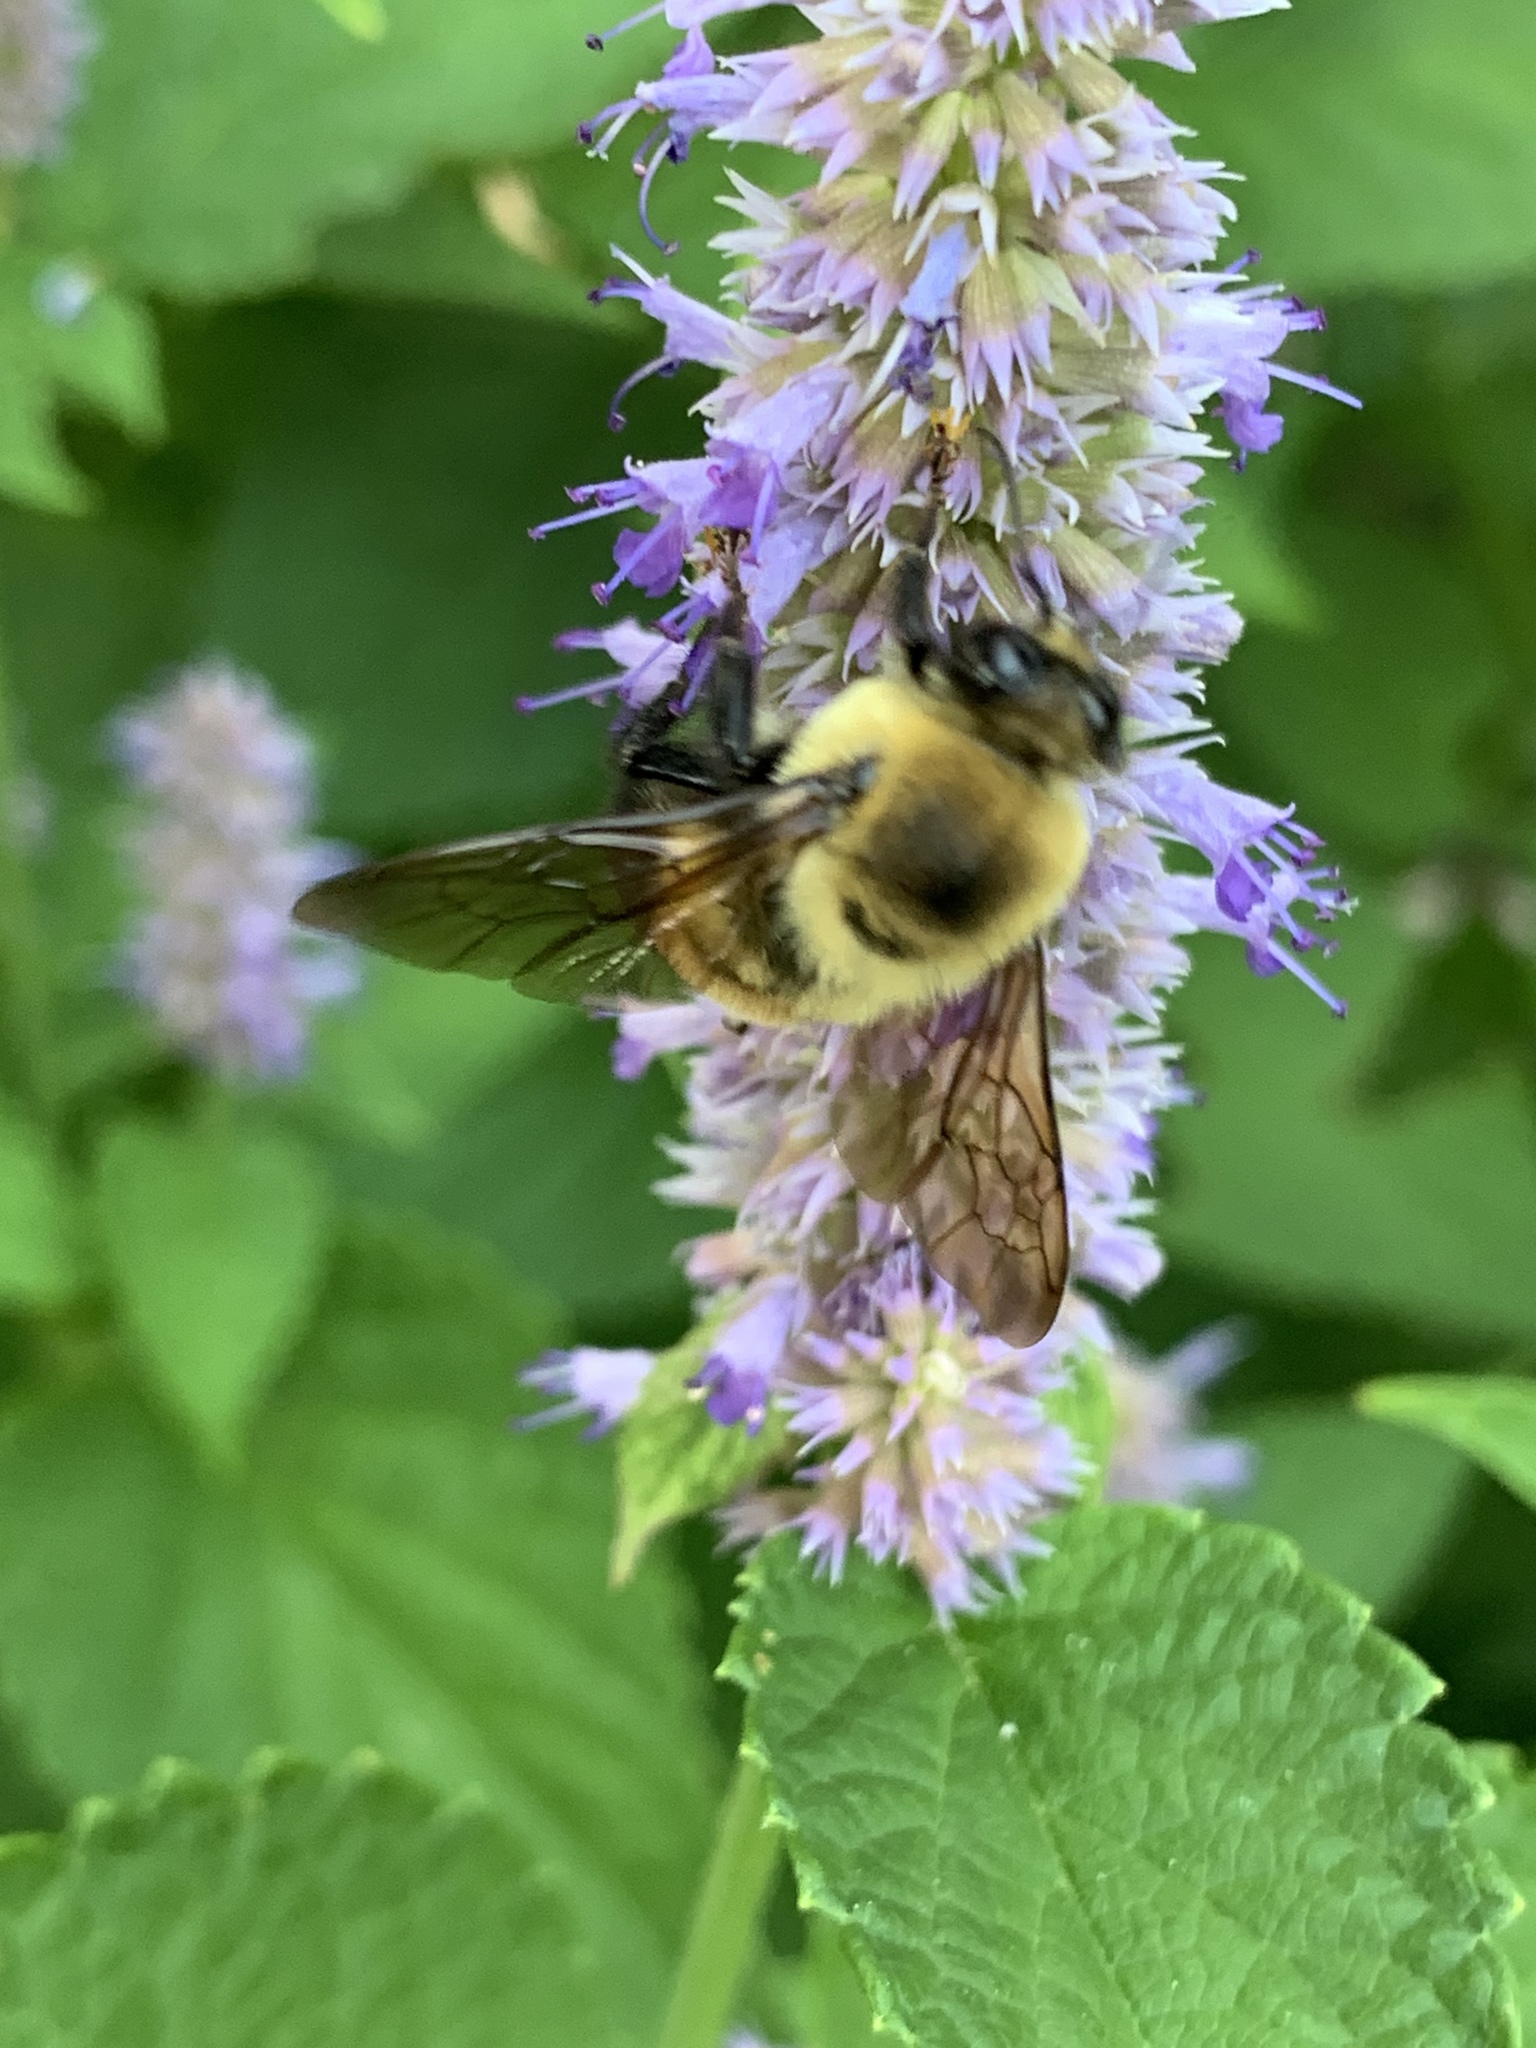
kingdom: Animalia
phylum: Arthropoda
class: Insecta
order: Hymenoptera
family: Apidae
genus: Bombus
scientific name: Bombus griseocollis
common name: Brown-belted bumble bee
